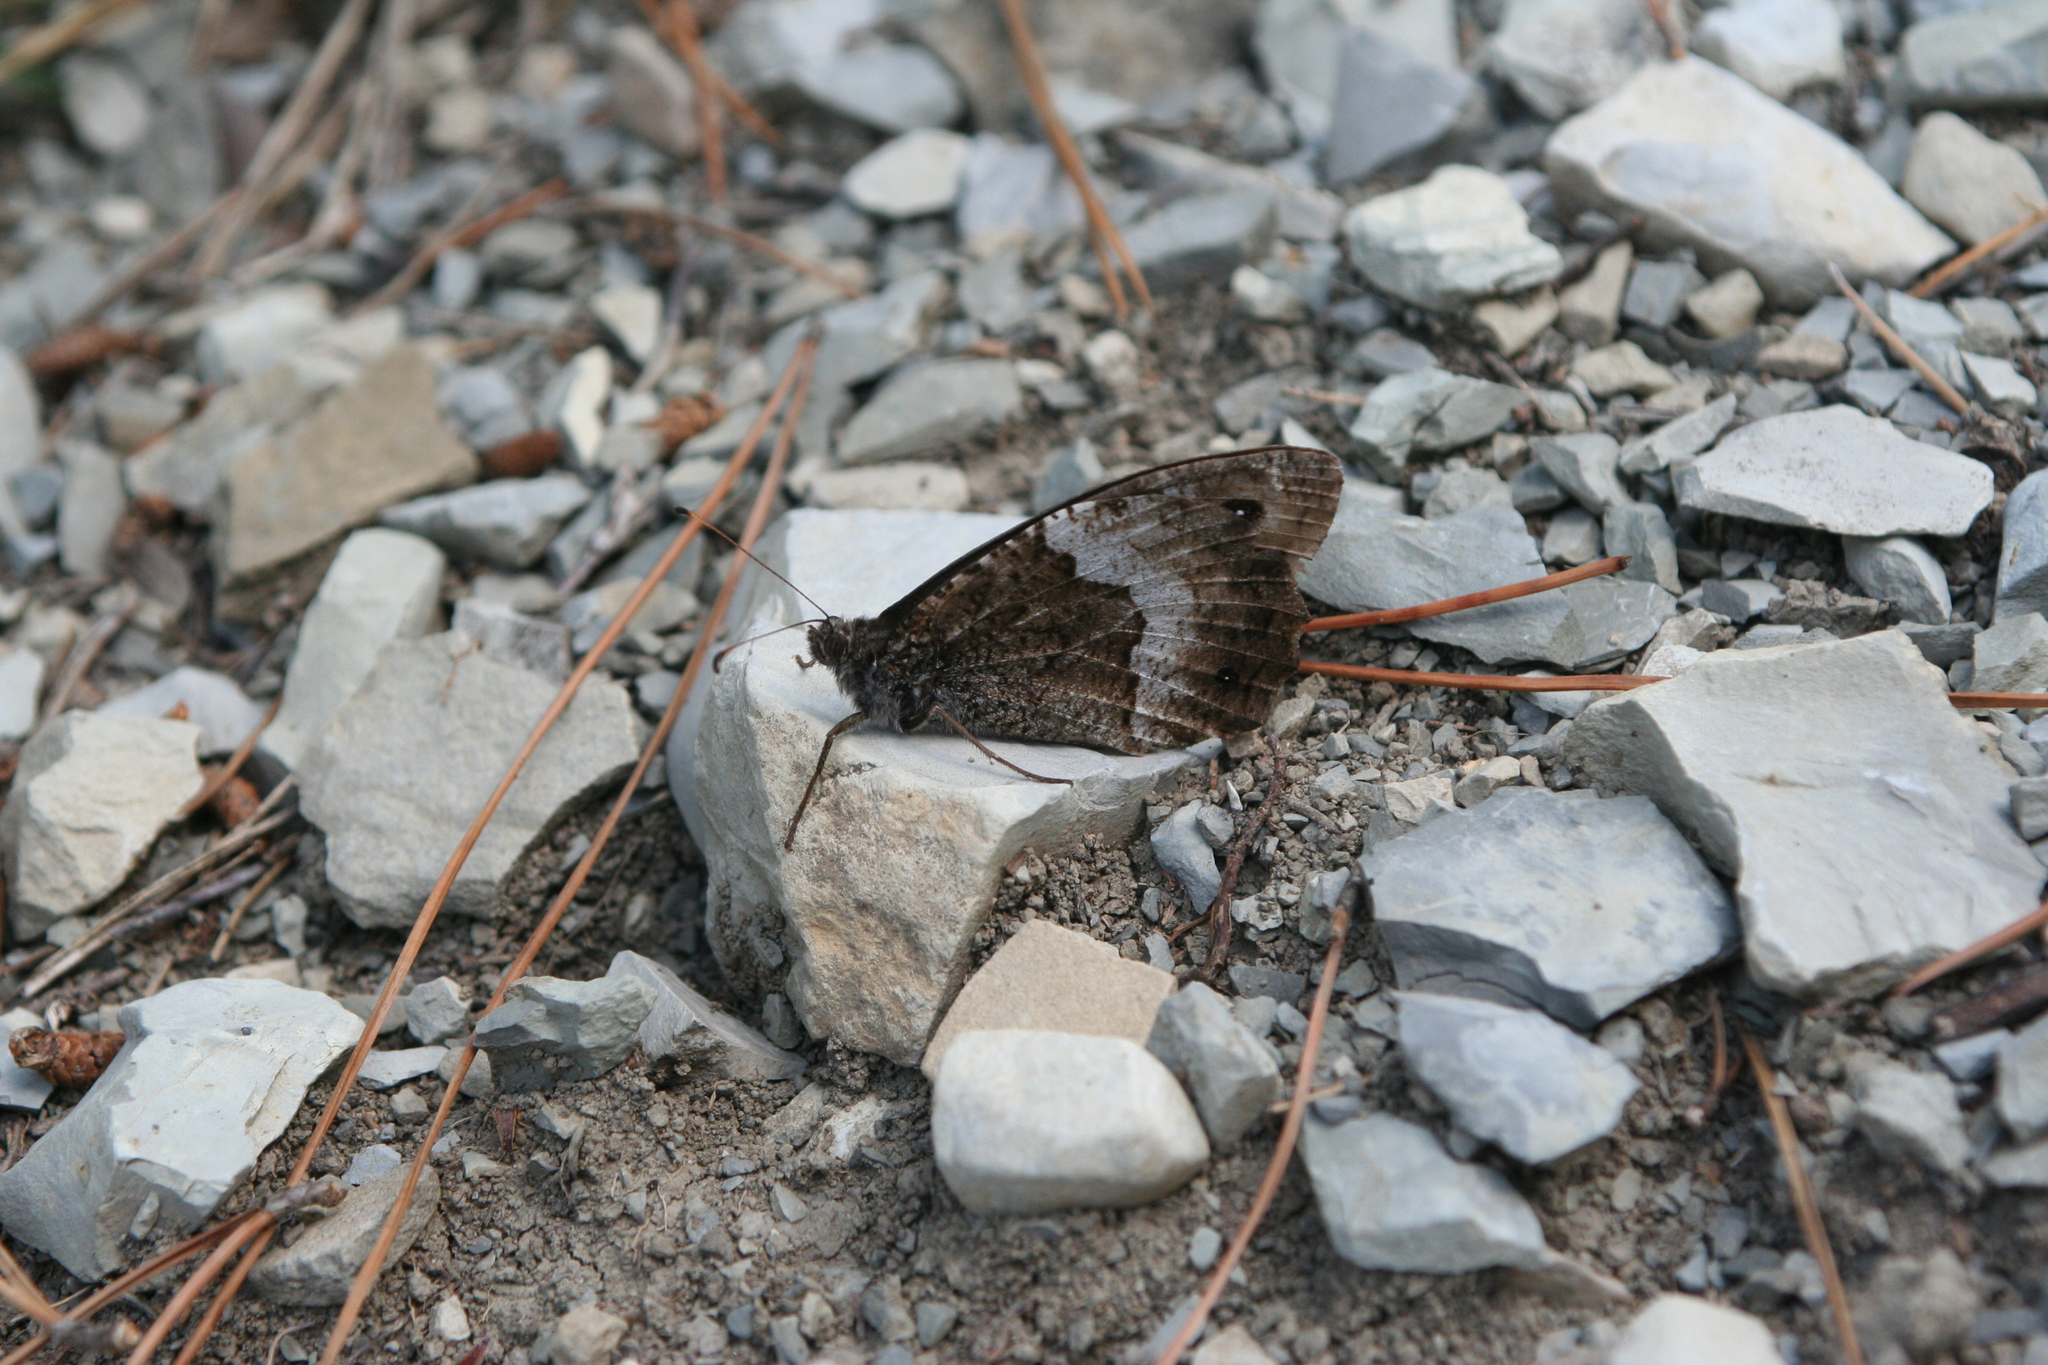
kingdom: Animalia
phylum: Arthropoda
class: Insecta
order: Lepidoptera
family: Nymphalidae
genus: Hipparchia
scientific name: Hipparchia fagi
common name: Woodland grayling
